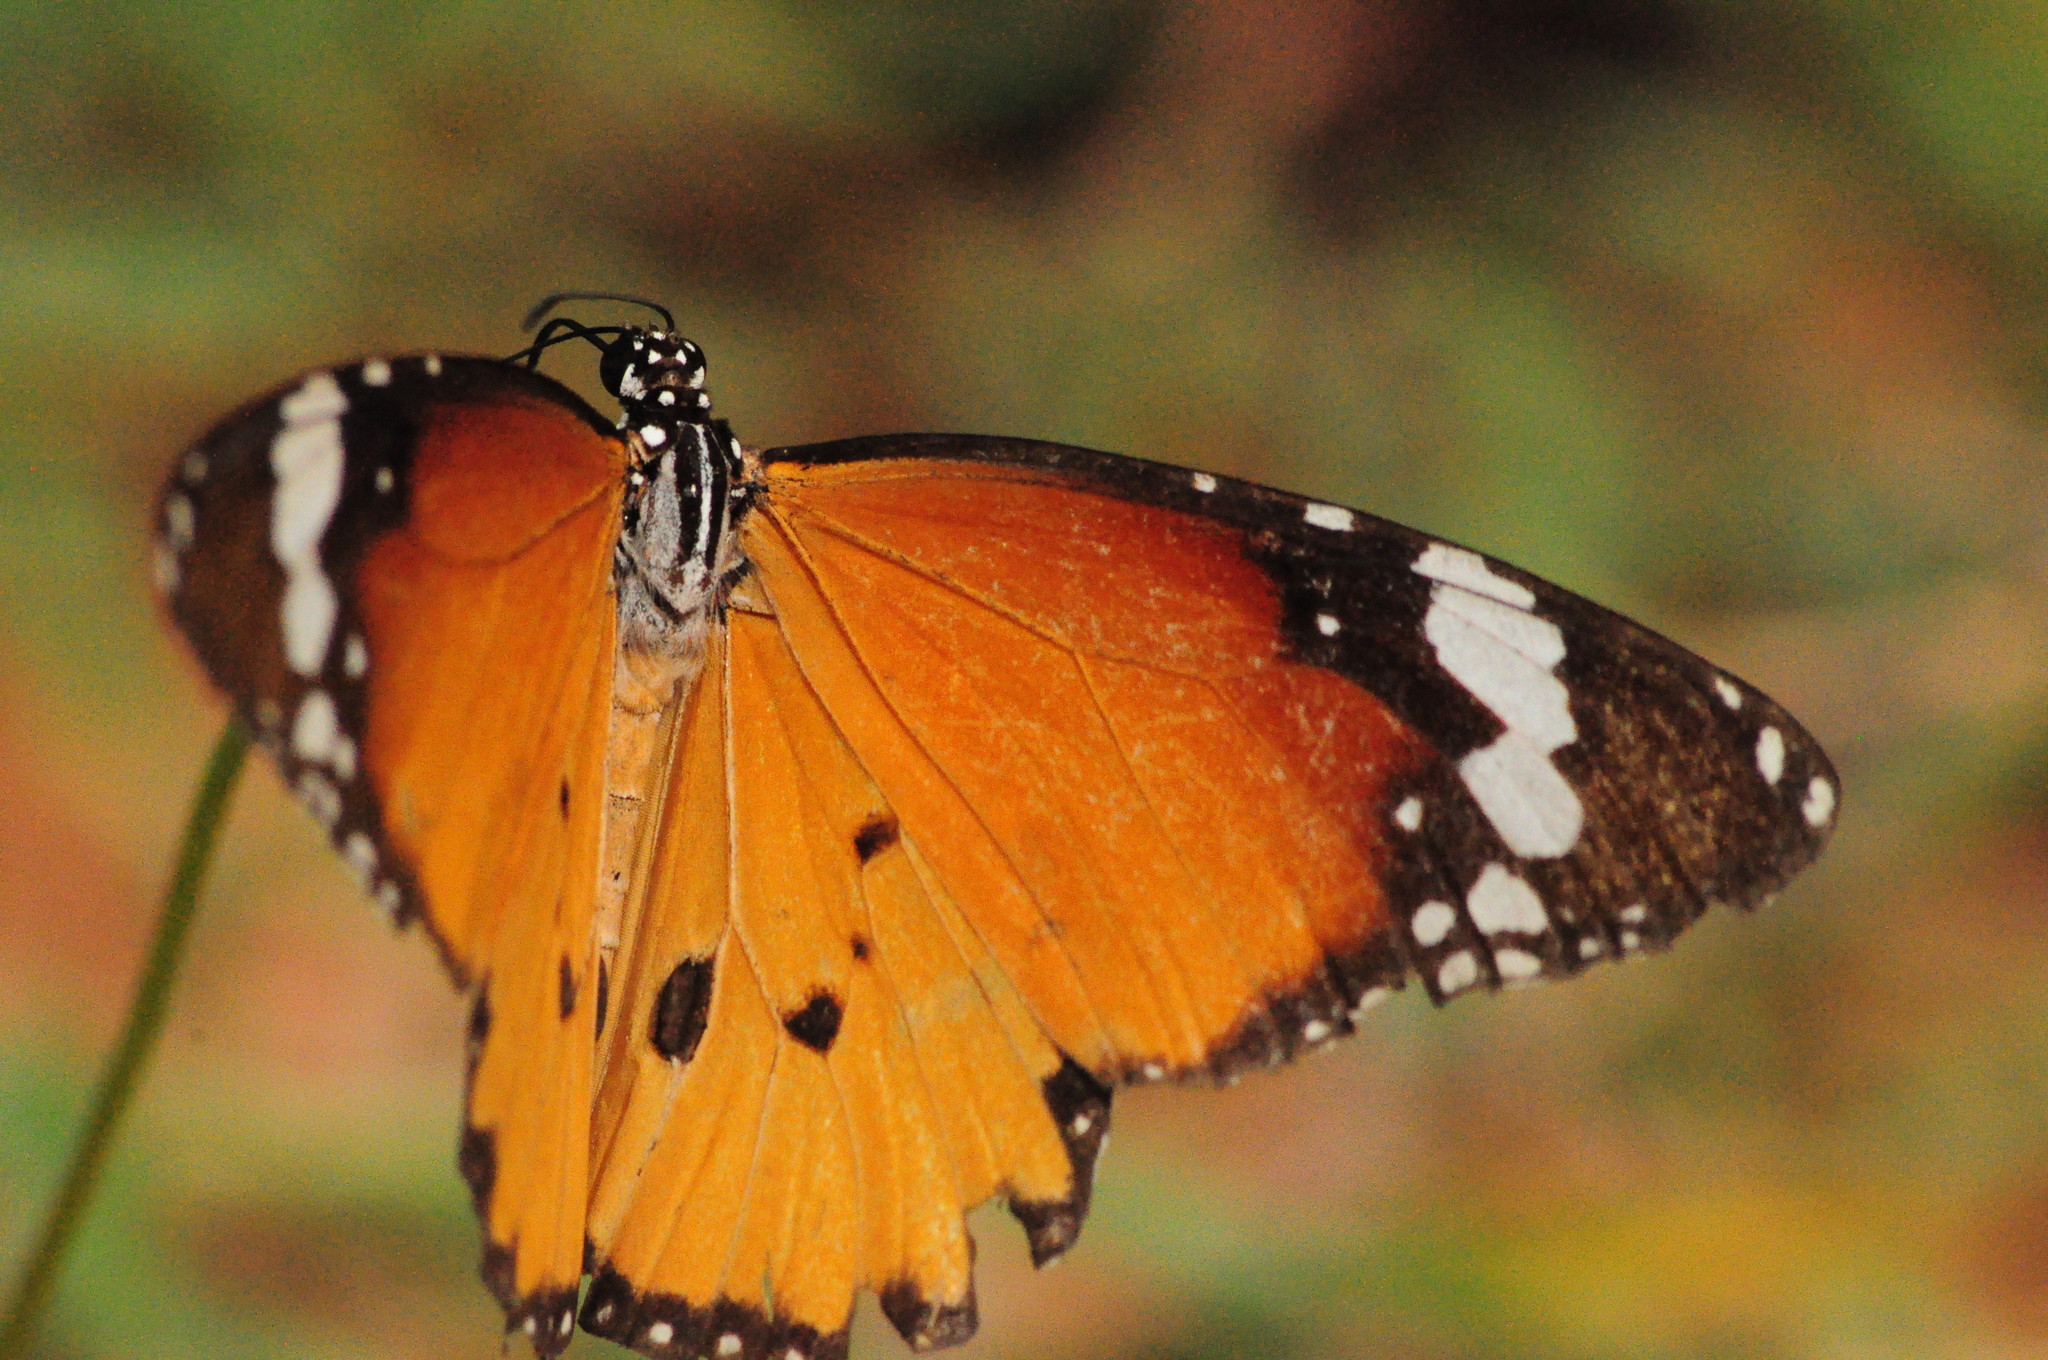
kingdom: Animalia
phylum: Arthropoda
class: Insecta
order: Lepidoptera
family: Nymphalidae
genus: Danaus
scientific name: Danaus chrysippus
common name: Plain tiger
